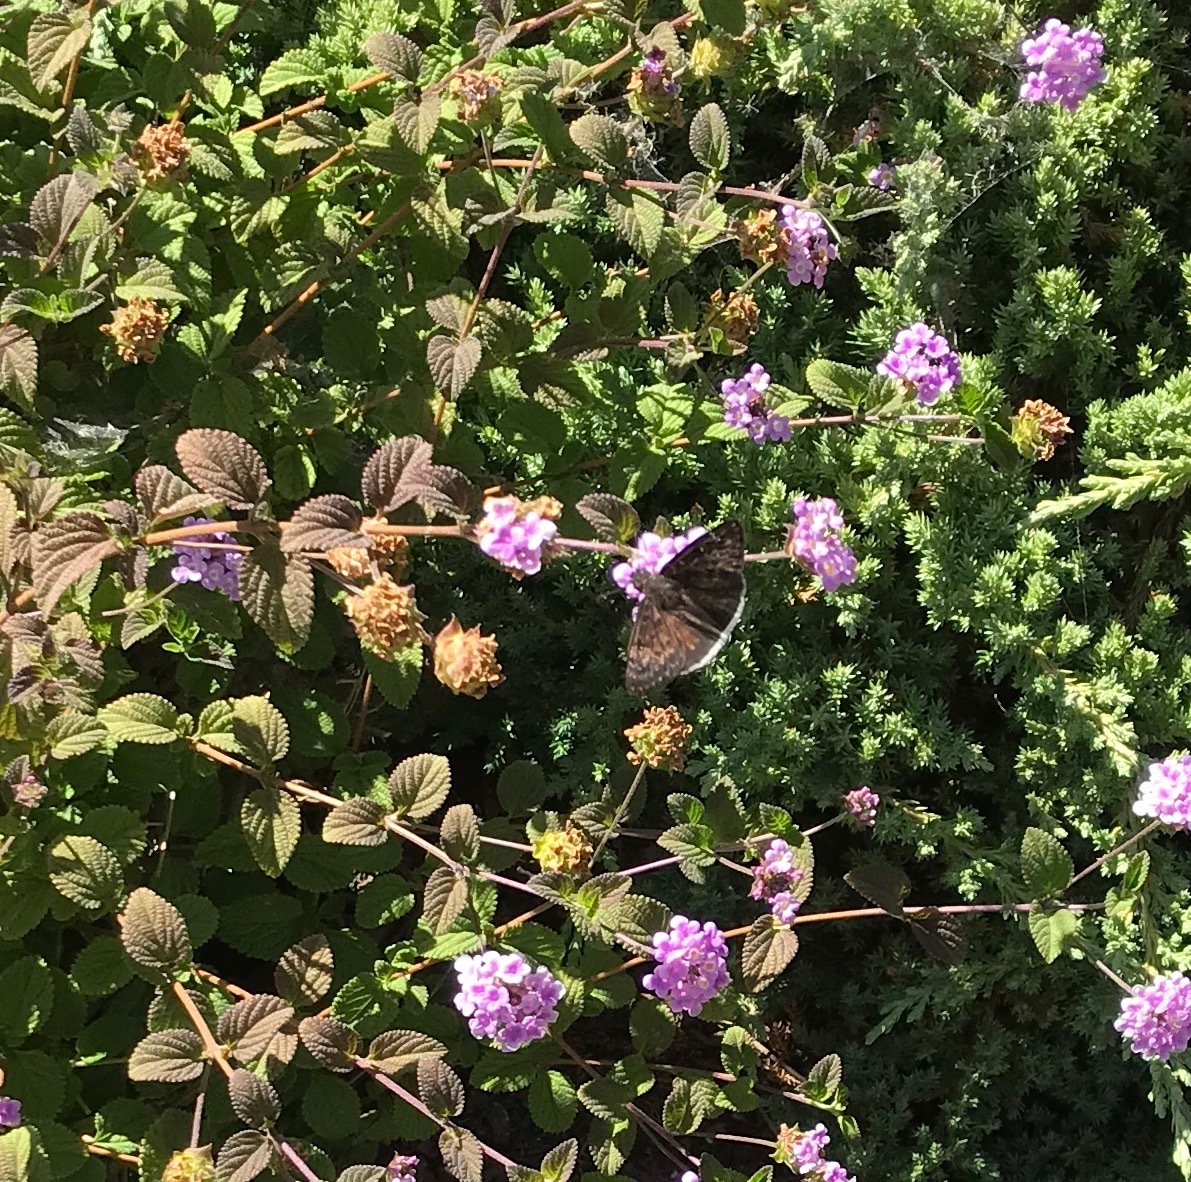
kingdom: Animalia
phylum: Arthropoda
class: Insecta
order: Lepidoptera
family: Hesperiidae
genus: Erynnis
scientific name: Erynnis tristis
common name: Mournful duskywing
